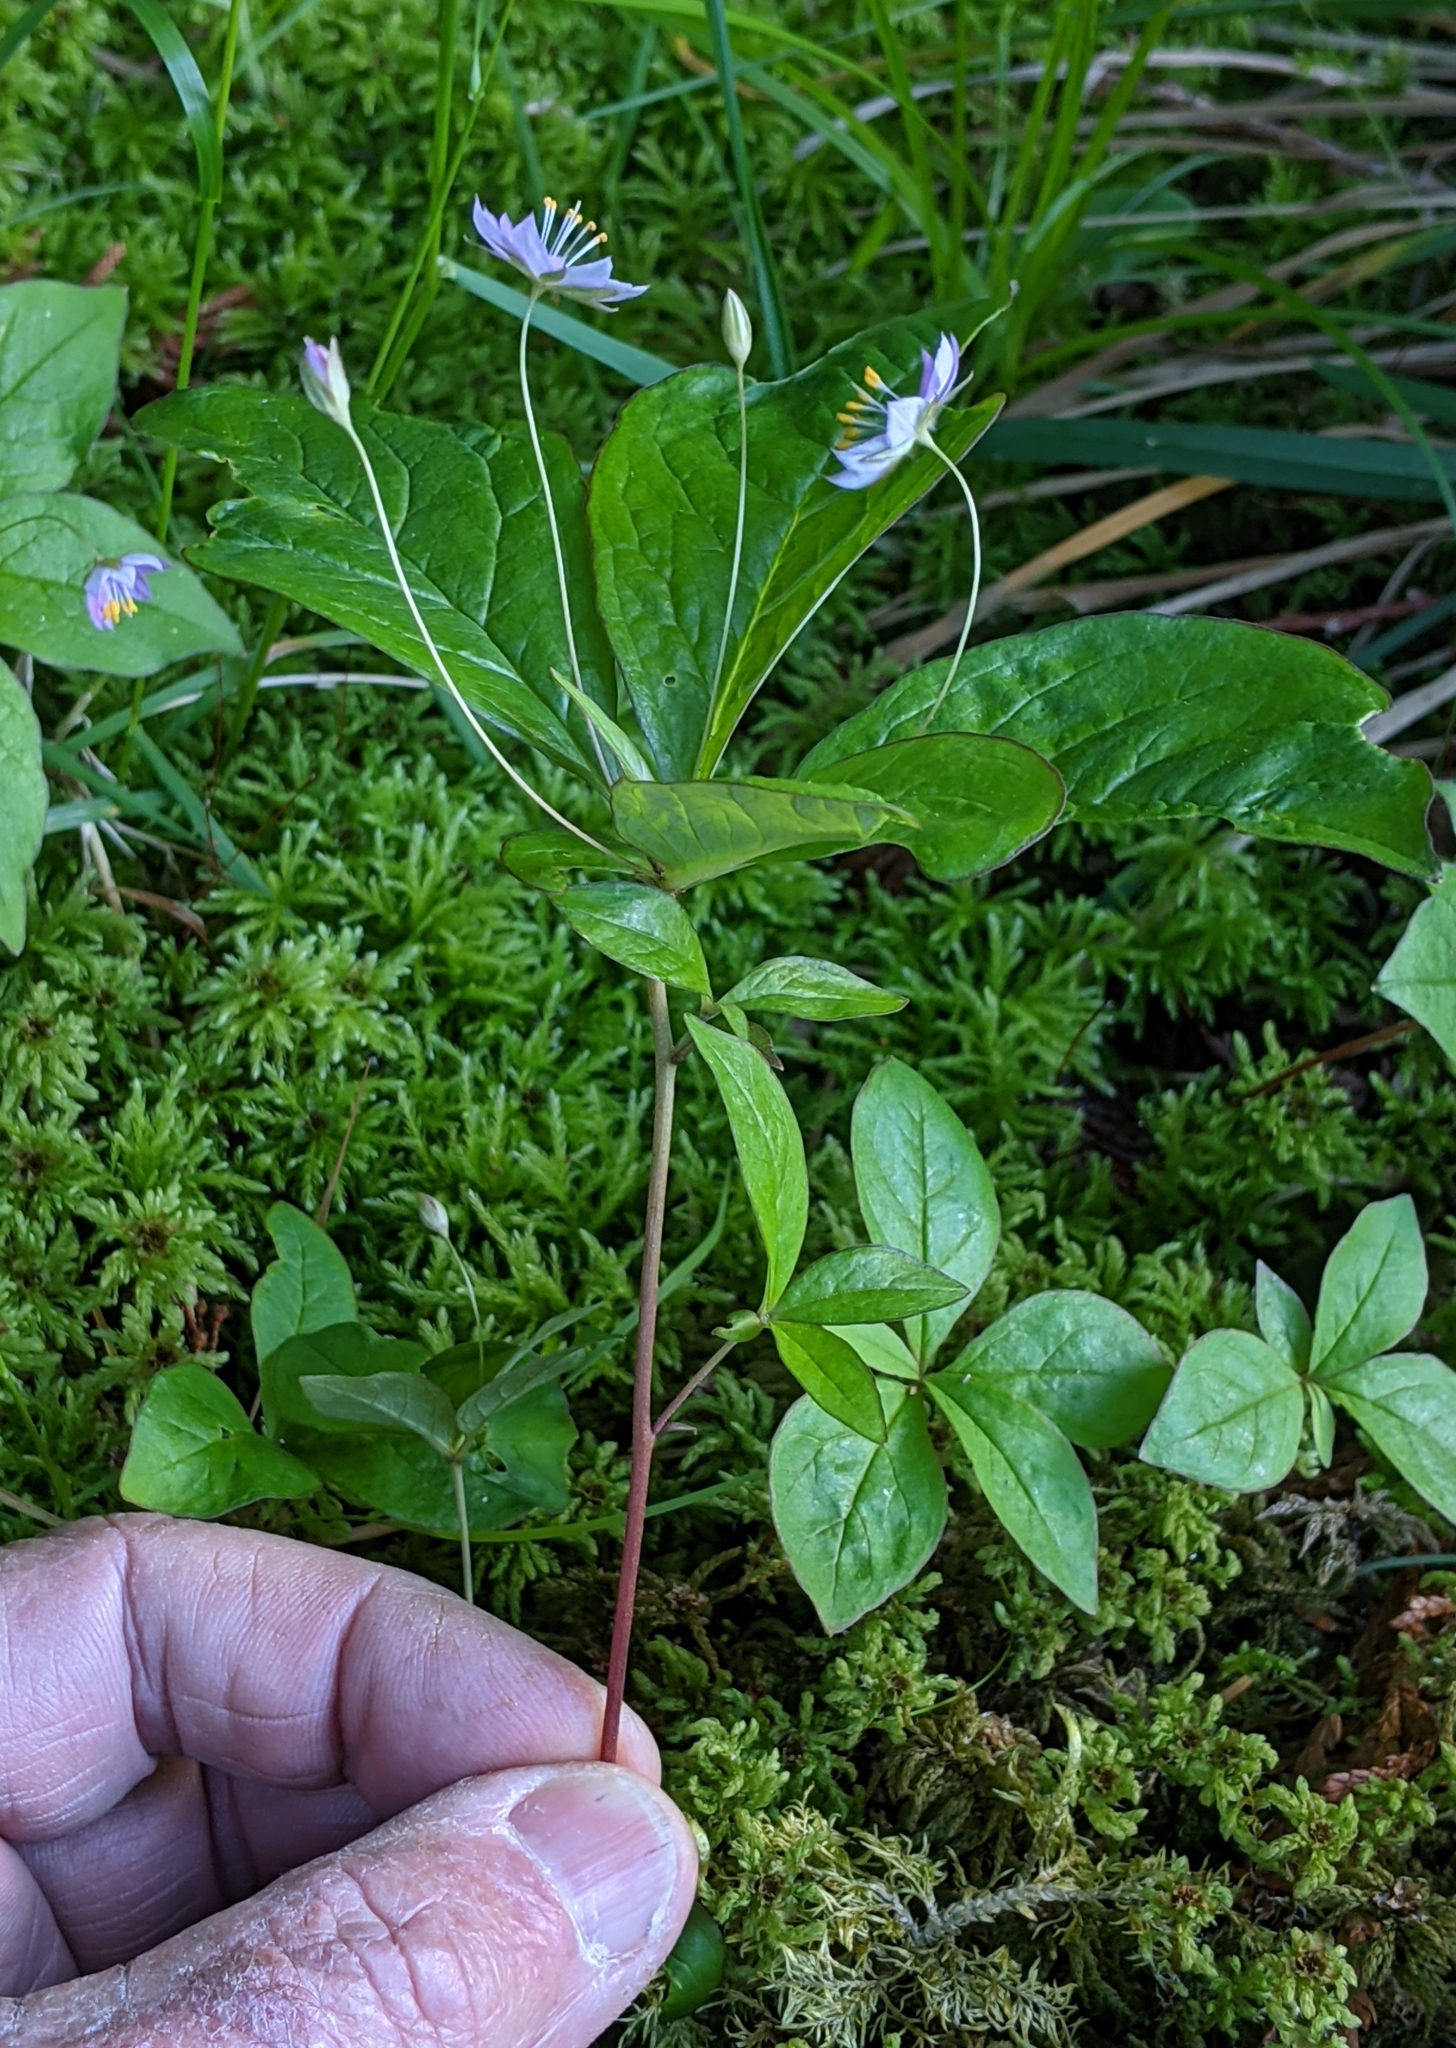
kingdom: Plantae
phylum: Tracheophyta
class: Magnoliopsida
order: Ericales
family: Primulaceae
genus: Lysimachia
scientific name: Lysimachia latifolia
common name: Pacific starflower
